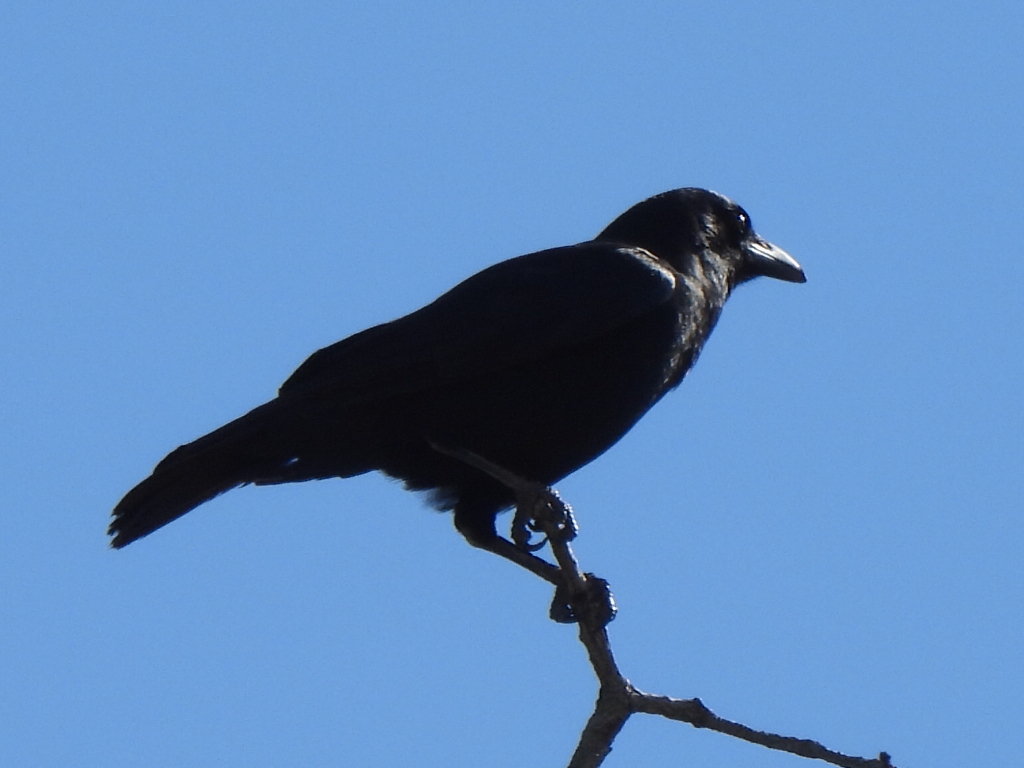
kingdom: Animalia
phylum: Chordata
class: Aves
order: Passeriformes
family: Corvidae
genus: Corvus
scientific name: Corvus brachyrhynchos
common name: American crow
